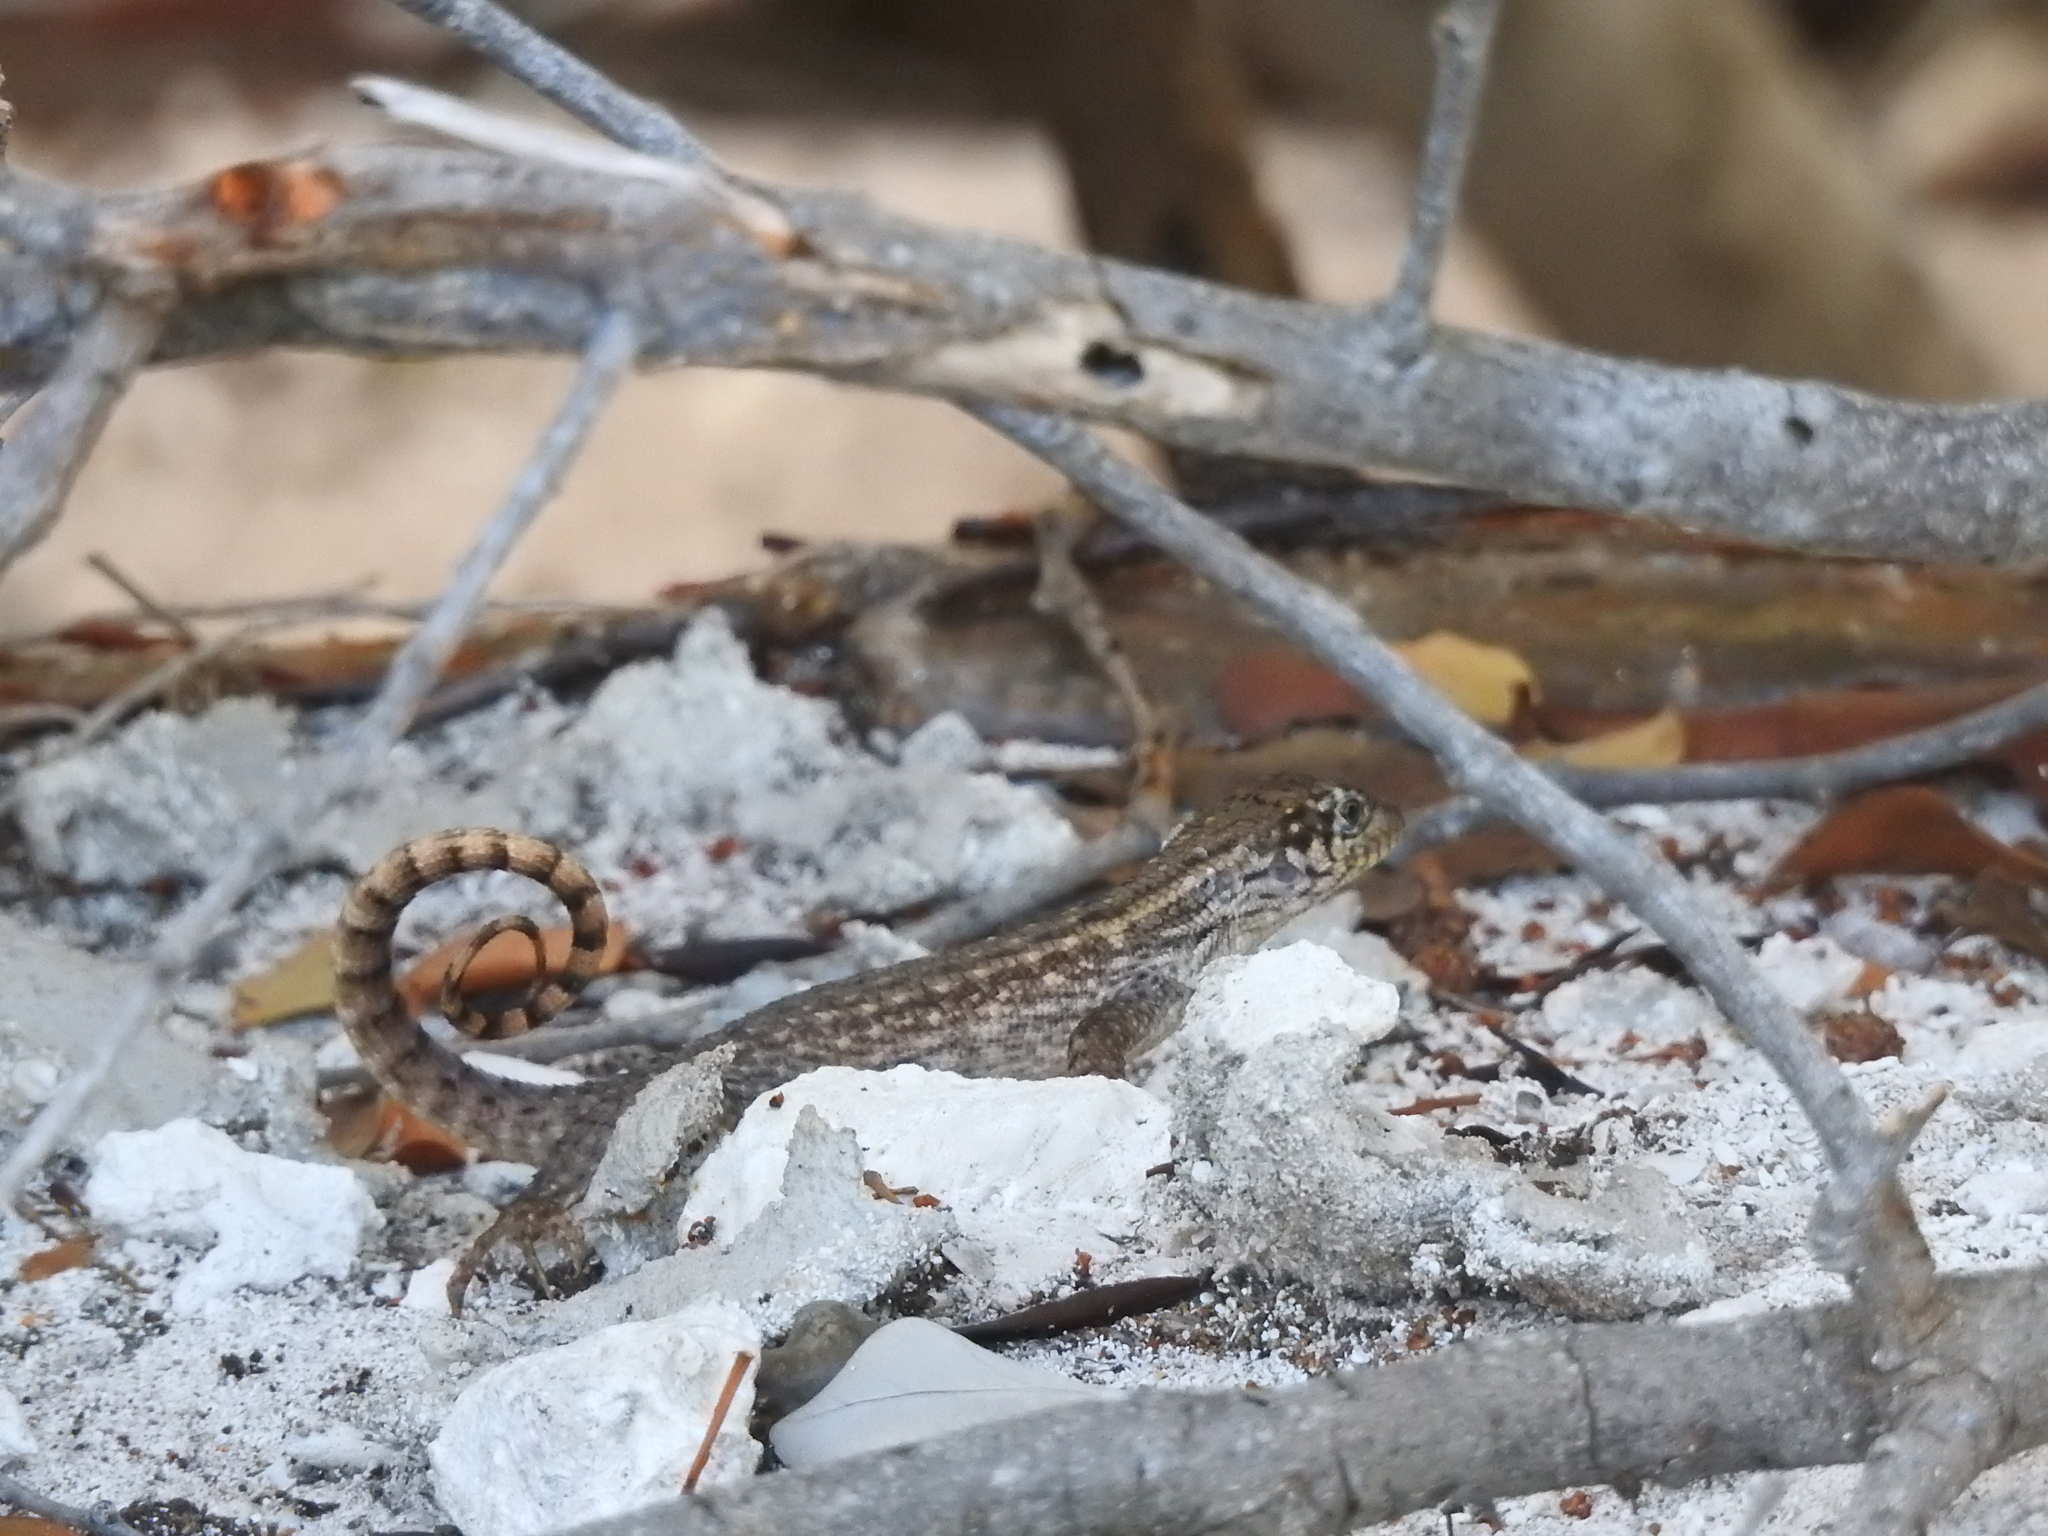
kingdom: Animalia
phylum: Chordata
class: Squamata
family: Leiocephalidae
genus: Leiocephalus
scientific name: Leiocephalus carinatus
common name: Northern curly-tailed lizard
